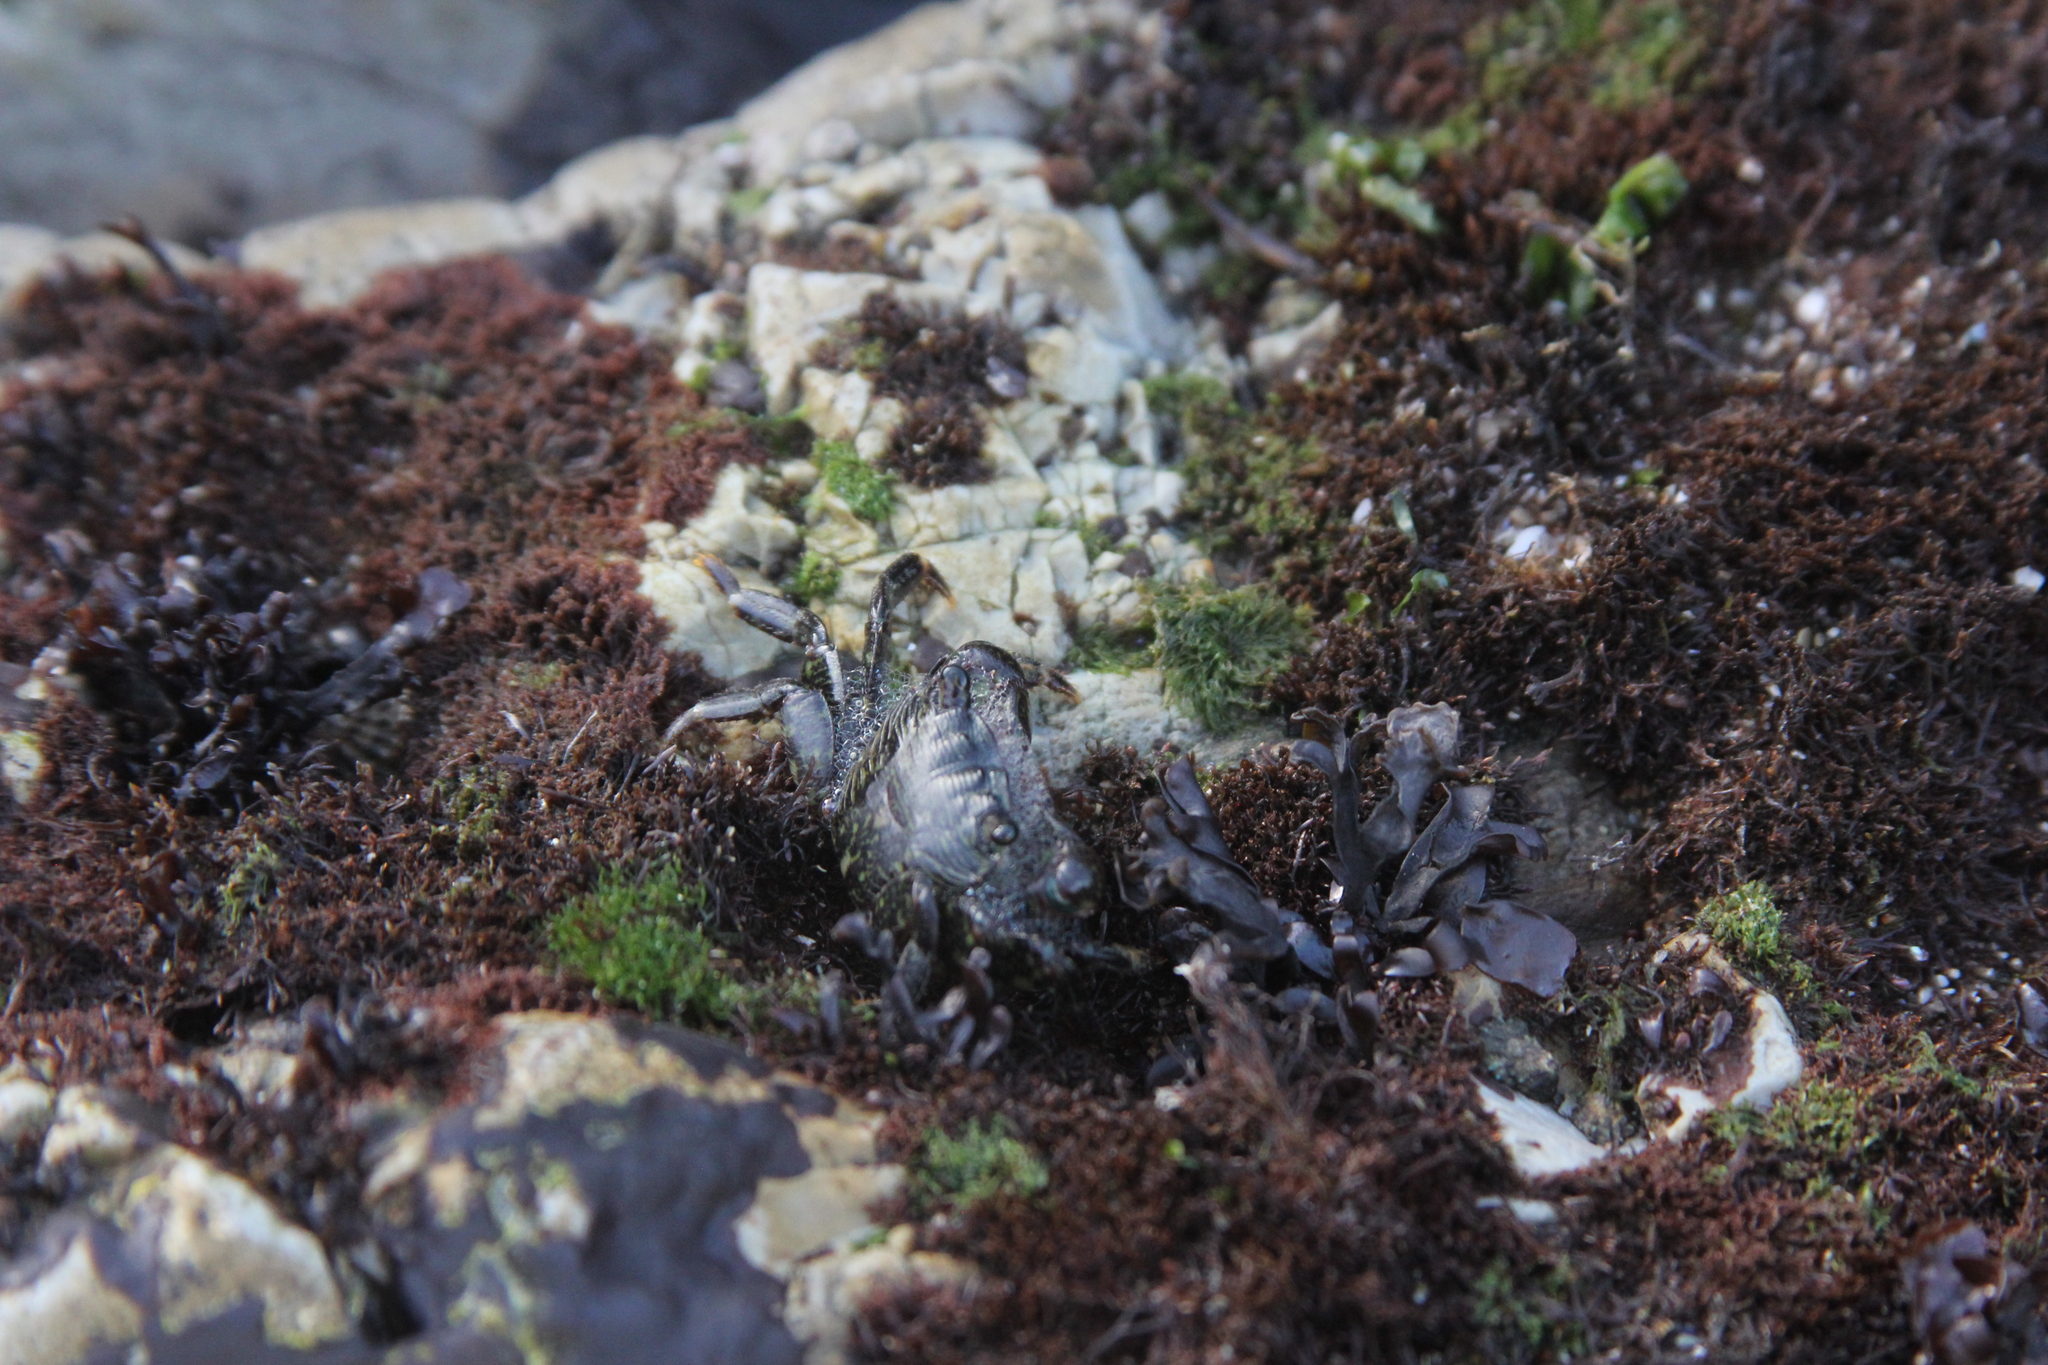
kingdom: Animalia
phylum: Arthropoda
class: Malacostraca
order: Decapoda
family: Grapsidae
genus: Pachygrapsus
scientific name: Pachygrapsus crassipes
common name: Striped shore crab
